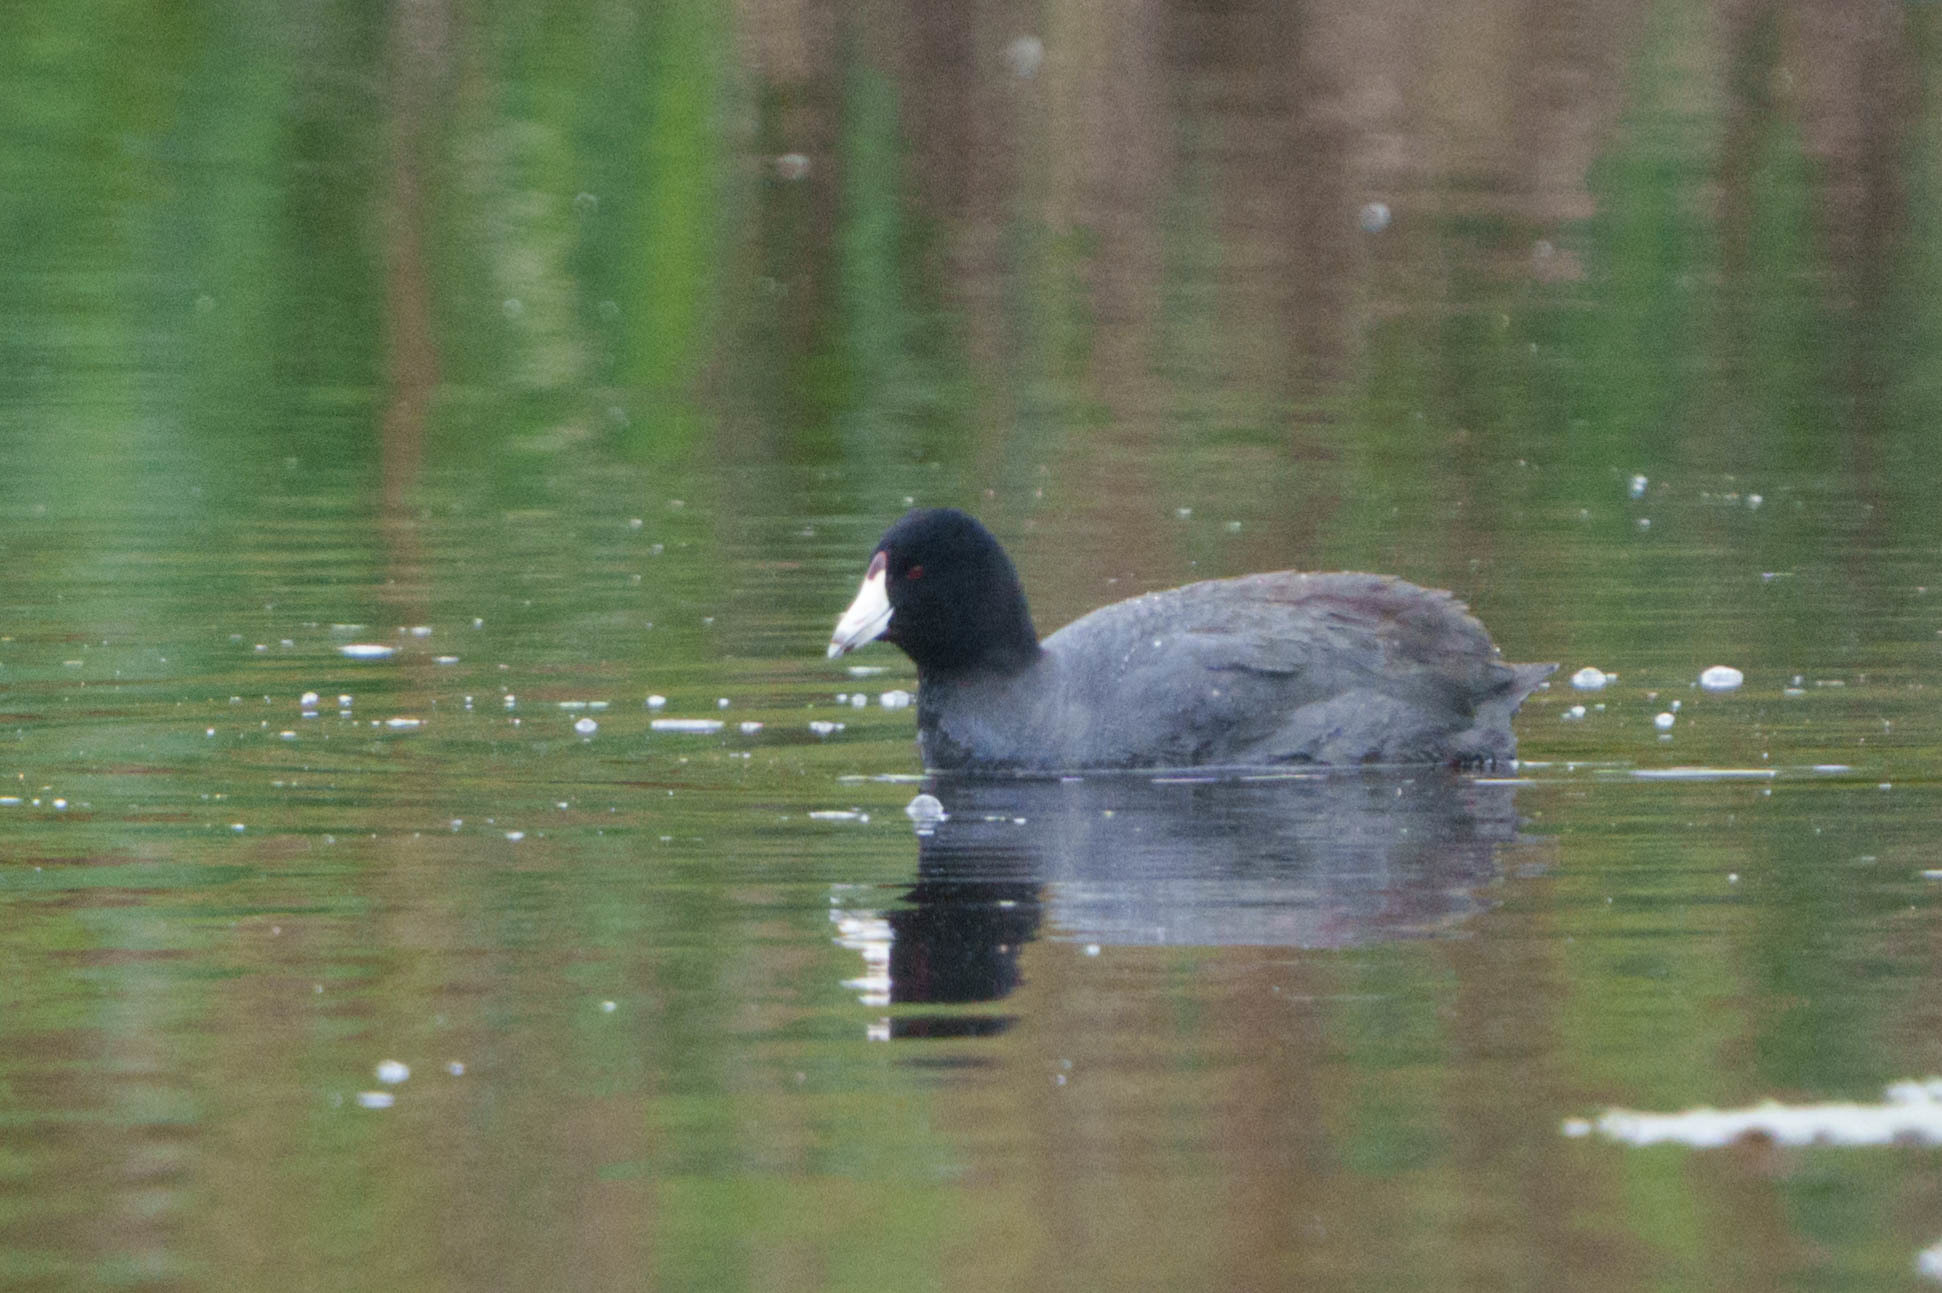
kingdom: Animalia
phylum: Chordata
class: Aves
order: Gruiformes
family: Rallidae
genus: Fulica
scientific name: Fulica americana
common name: American coot
